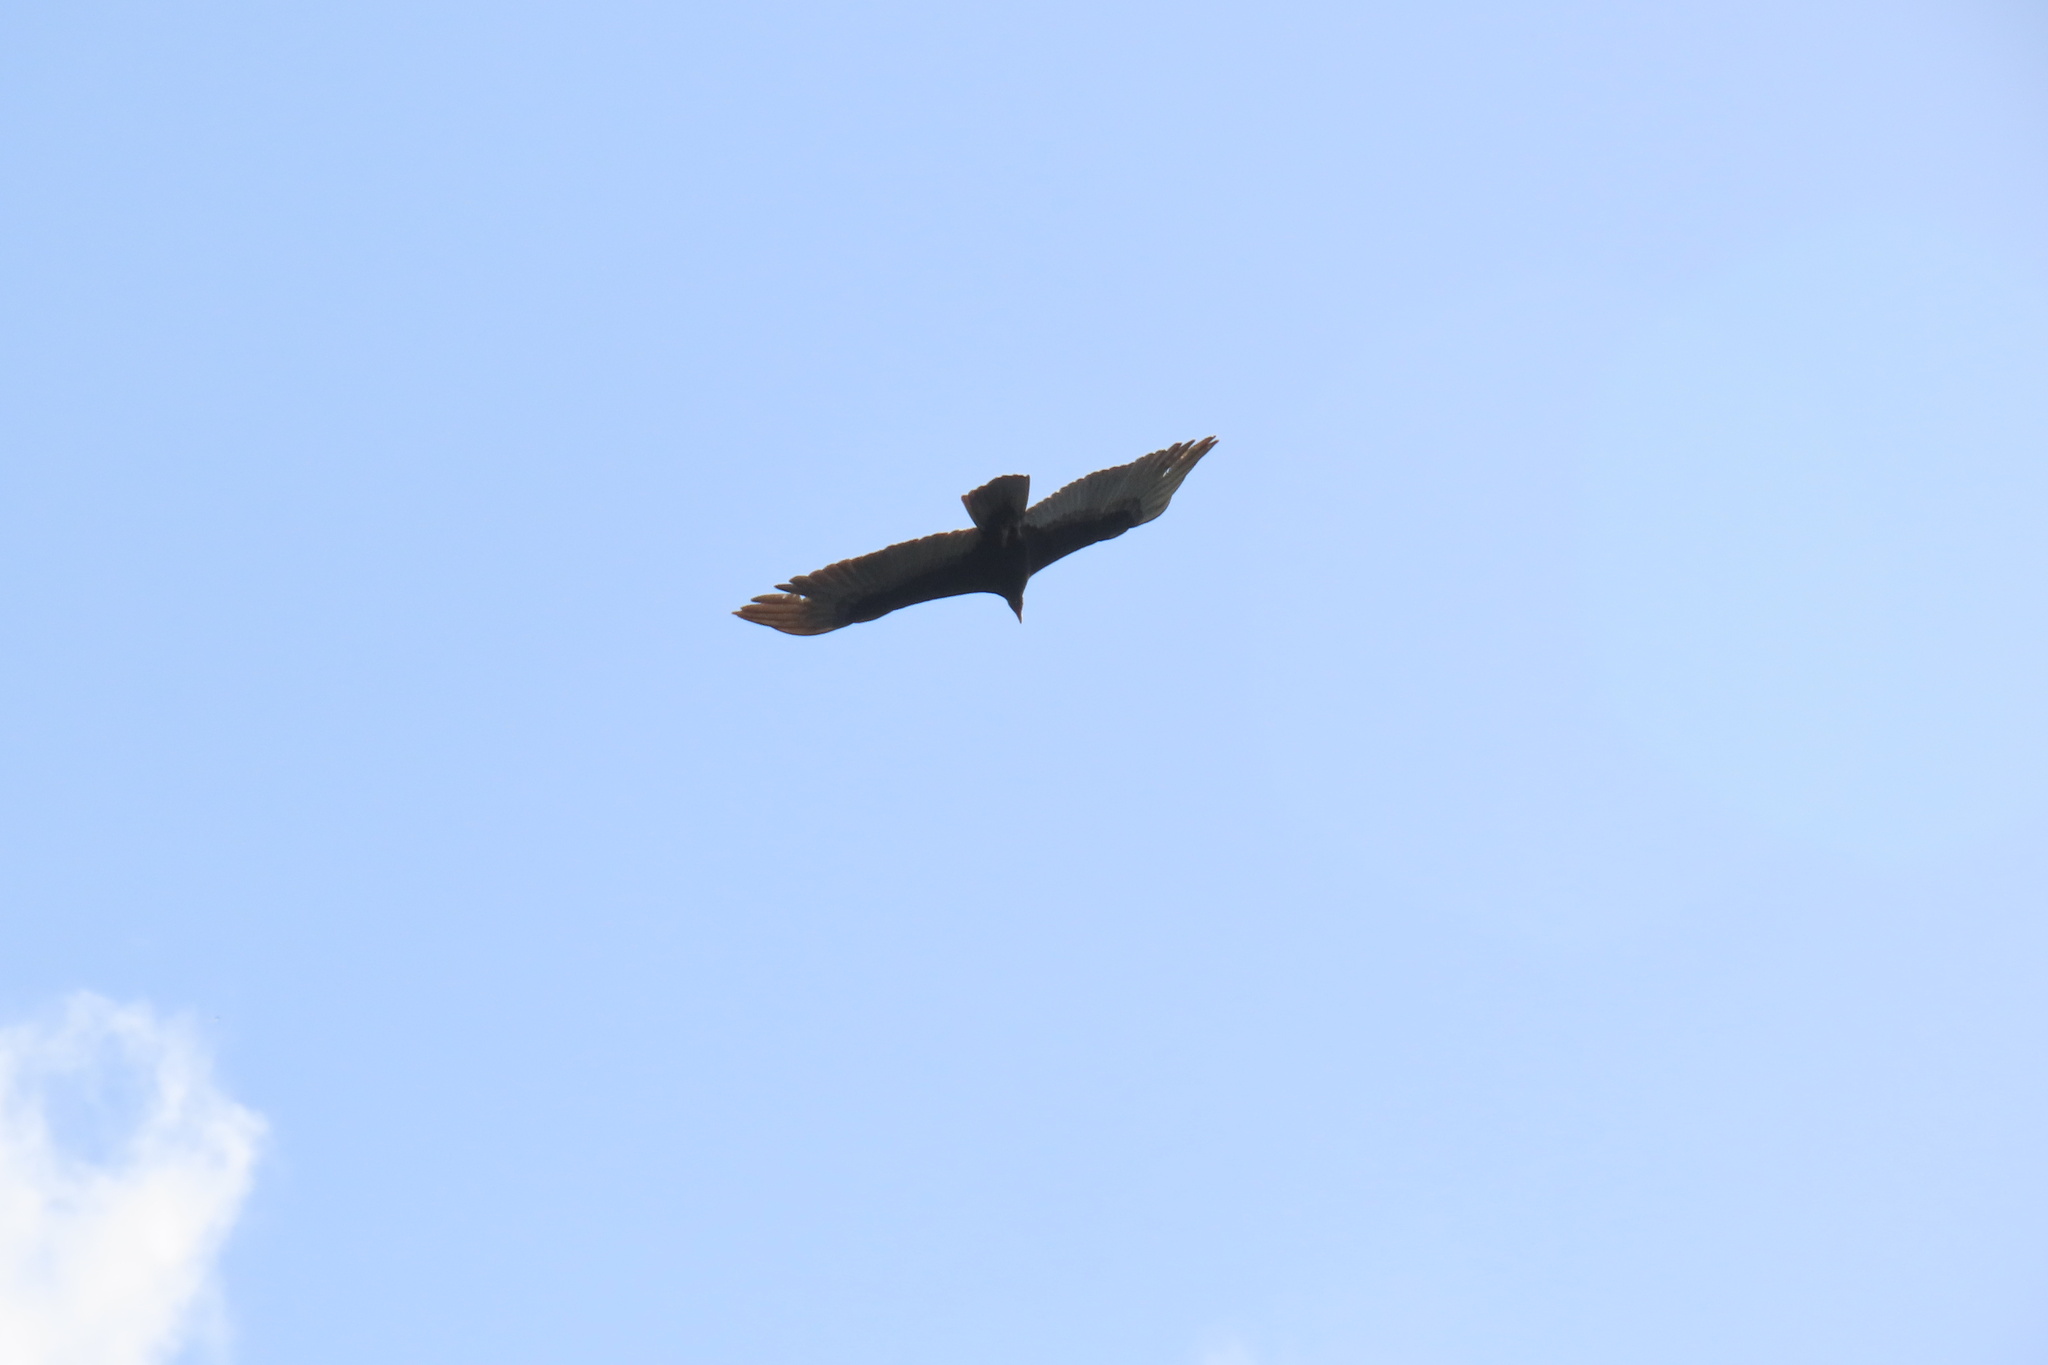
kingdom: Animalia
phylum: Chordata
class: Aves
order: Accipitriformes
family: Cathartidae
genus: Cathartes
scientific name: Cathartes aura
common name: Turkey vulture
